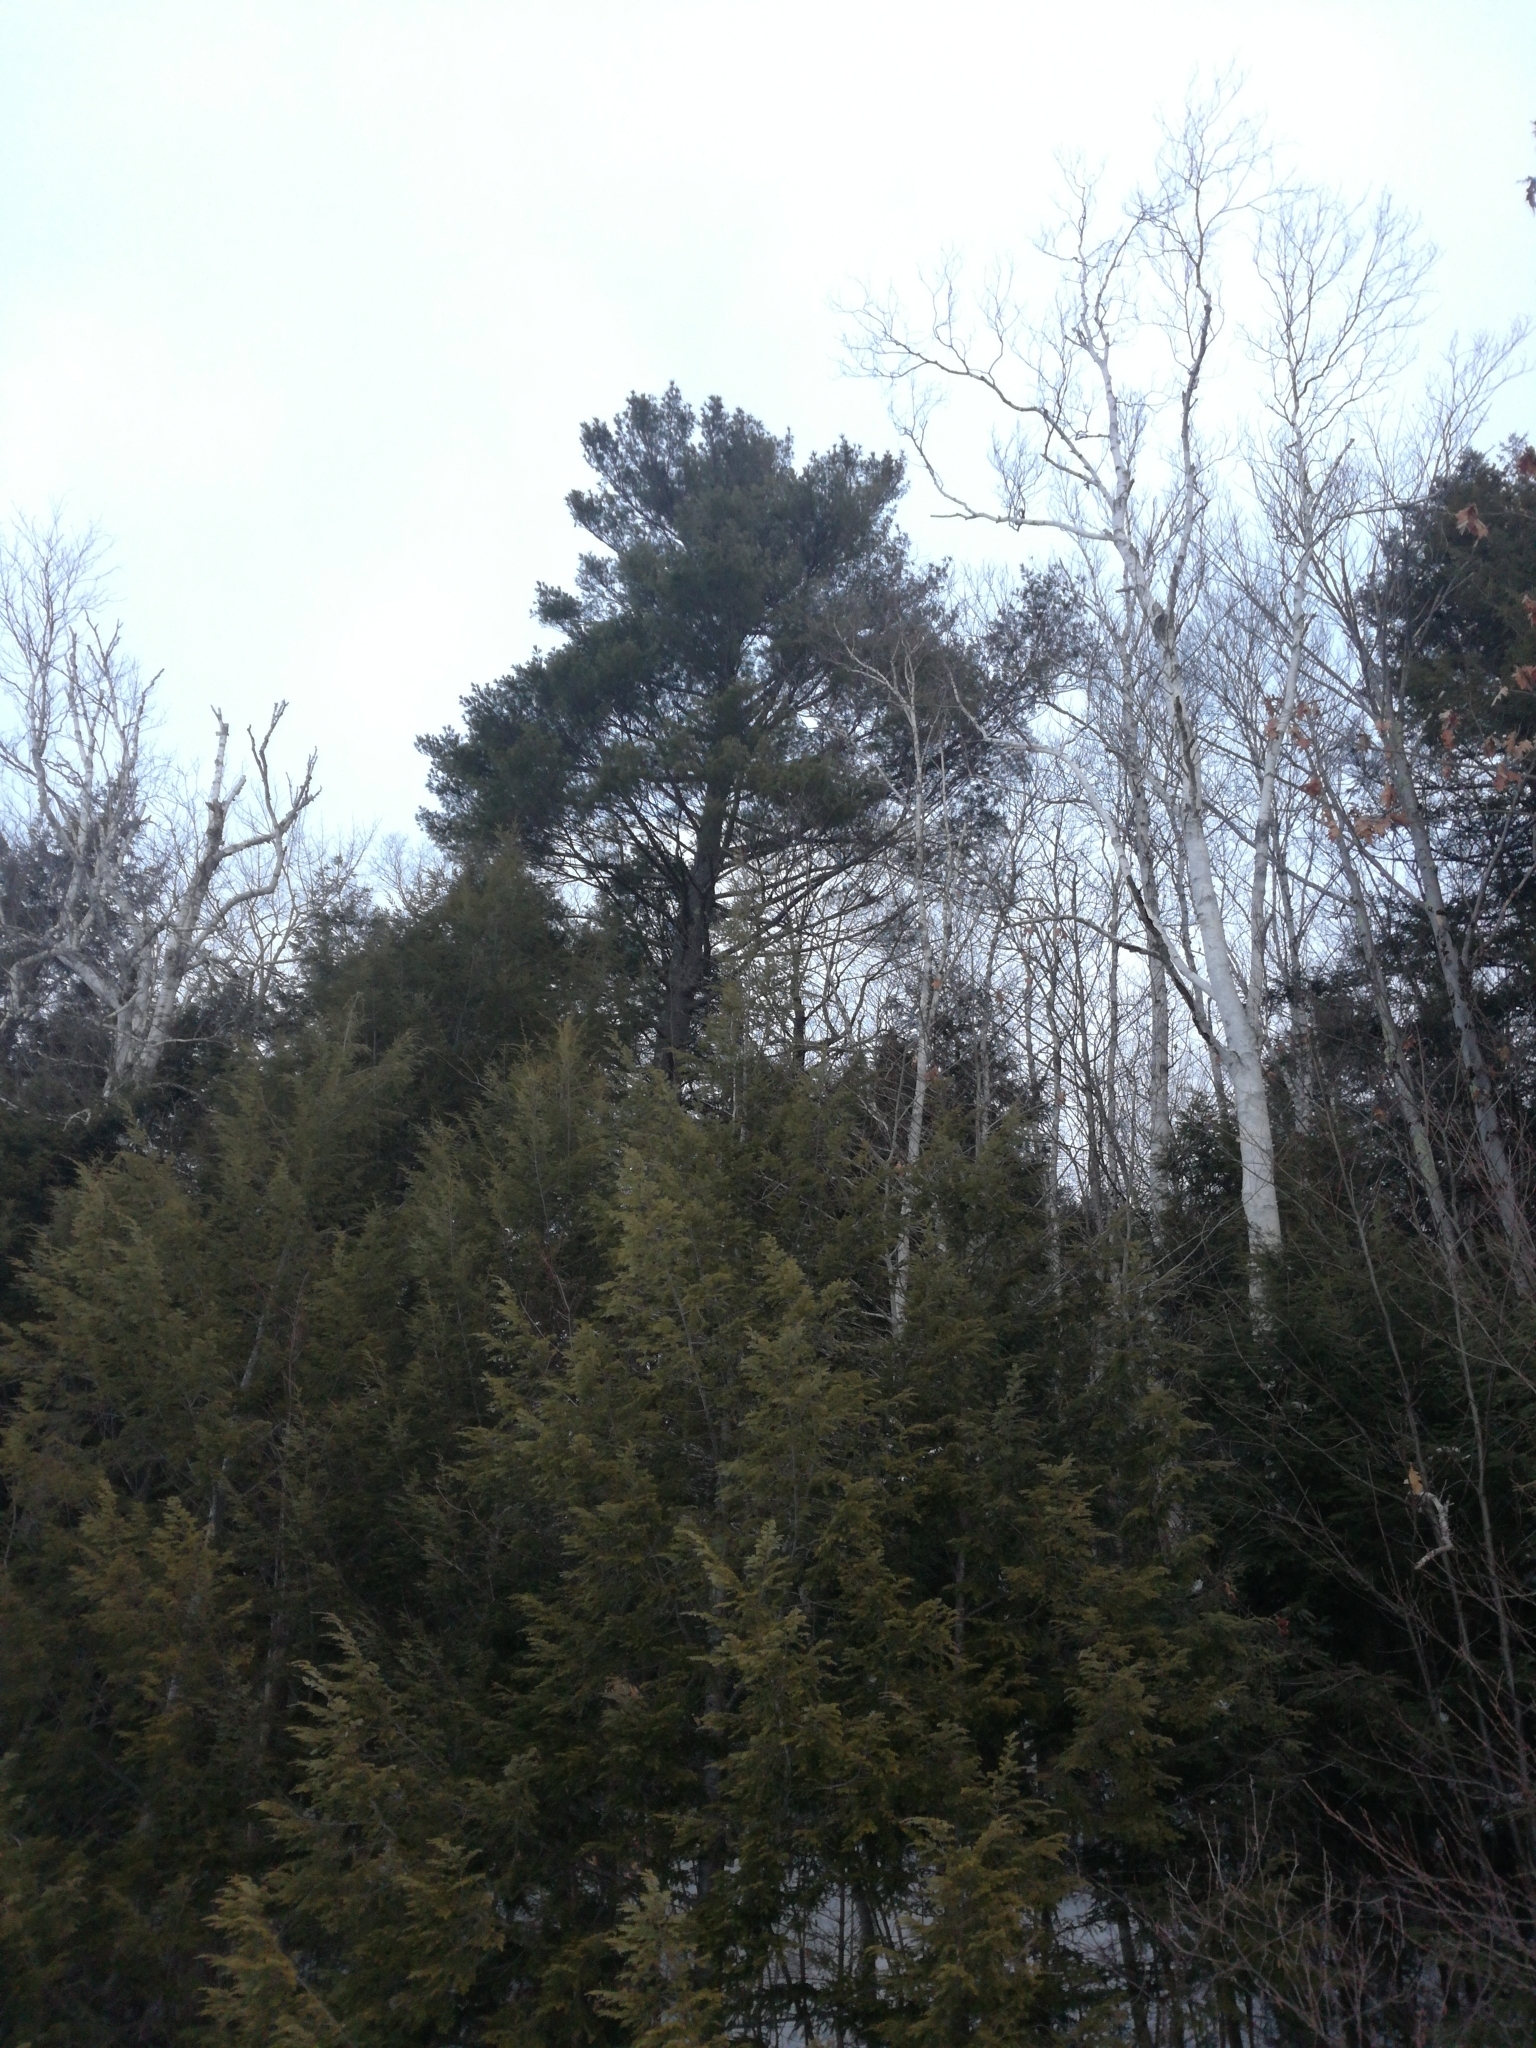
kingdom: Plantae
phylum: Tracheophyta
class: Pinopsida
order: Pinales
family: Pinaceae
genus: Pinus
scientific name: Pinus strobus
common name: Weymouth pine
